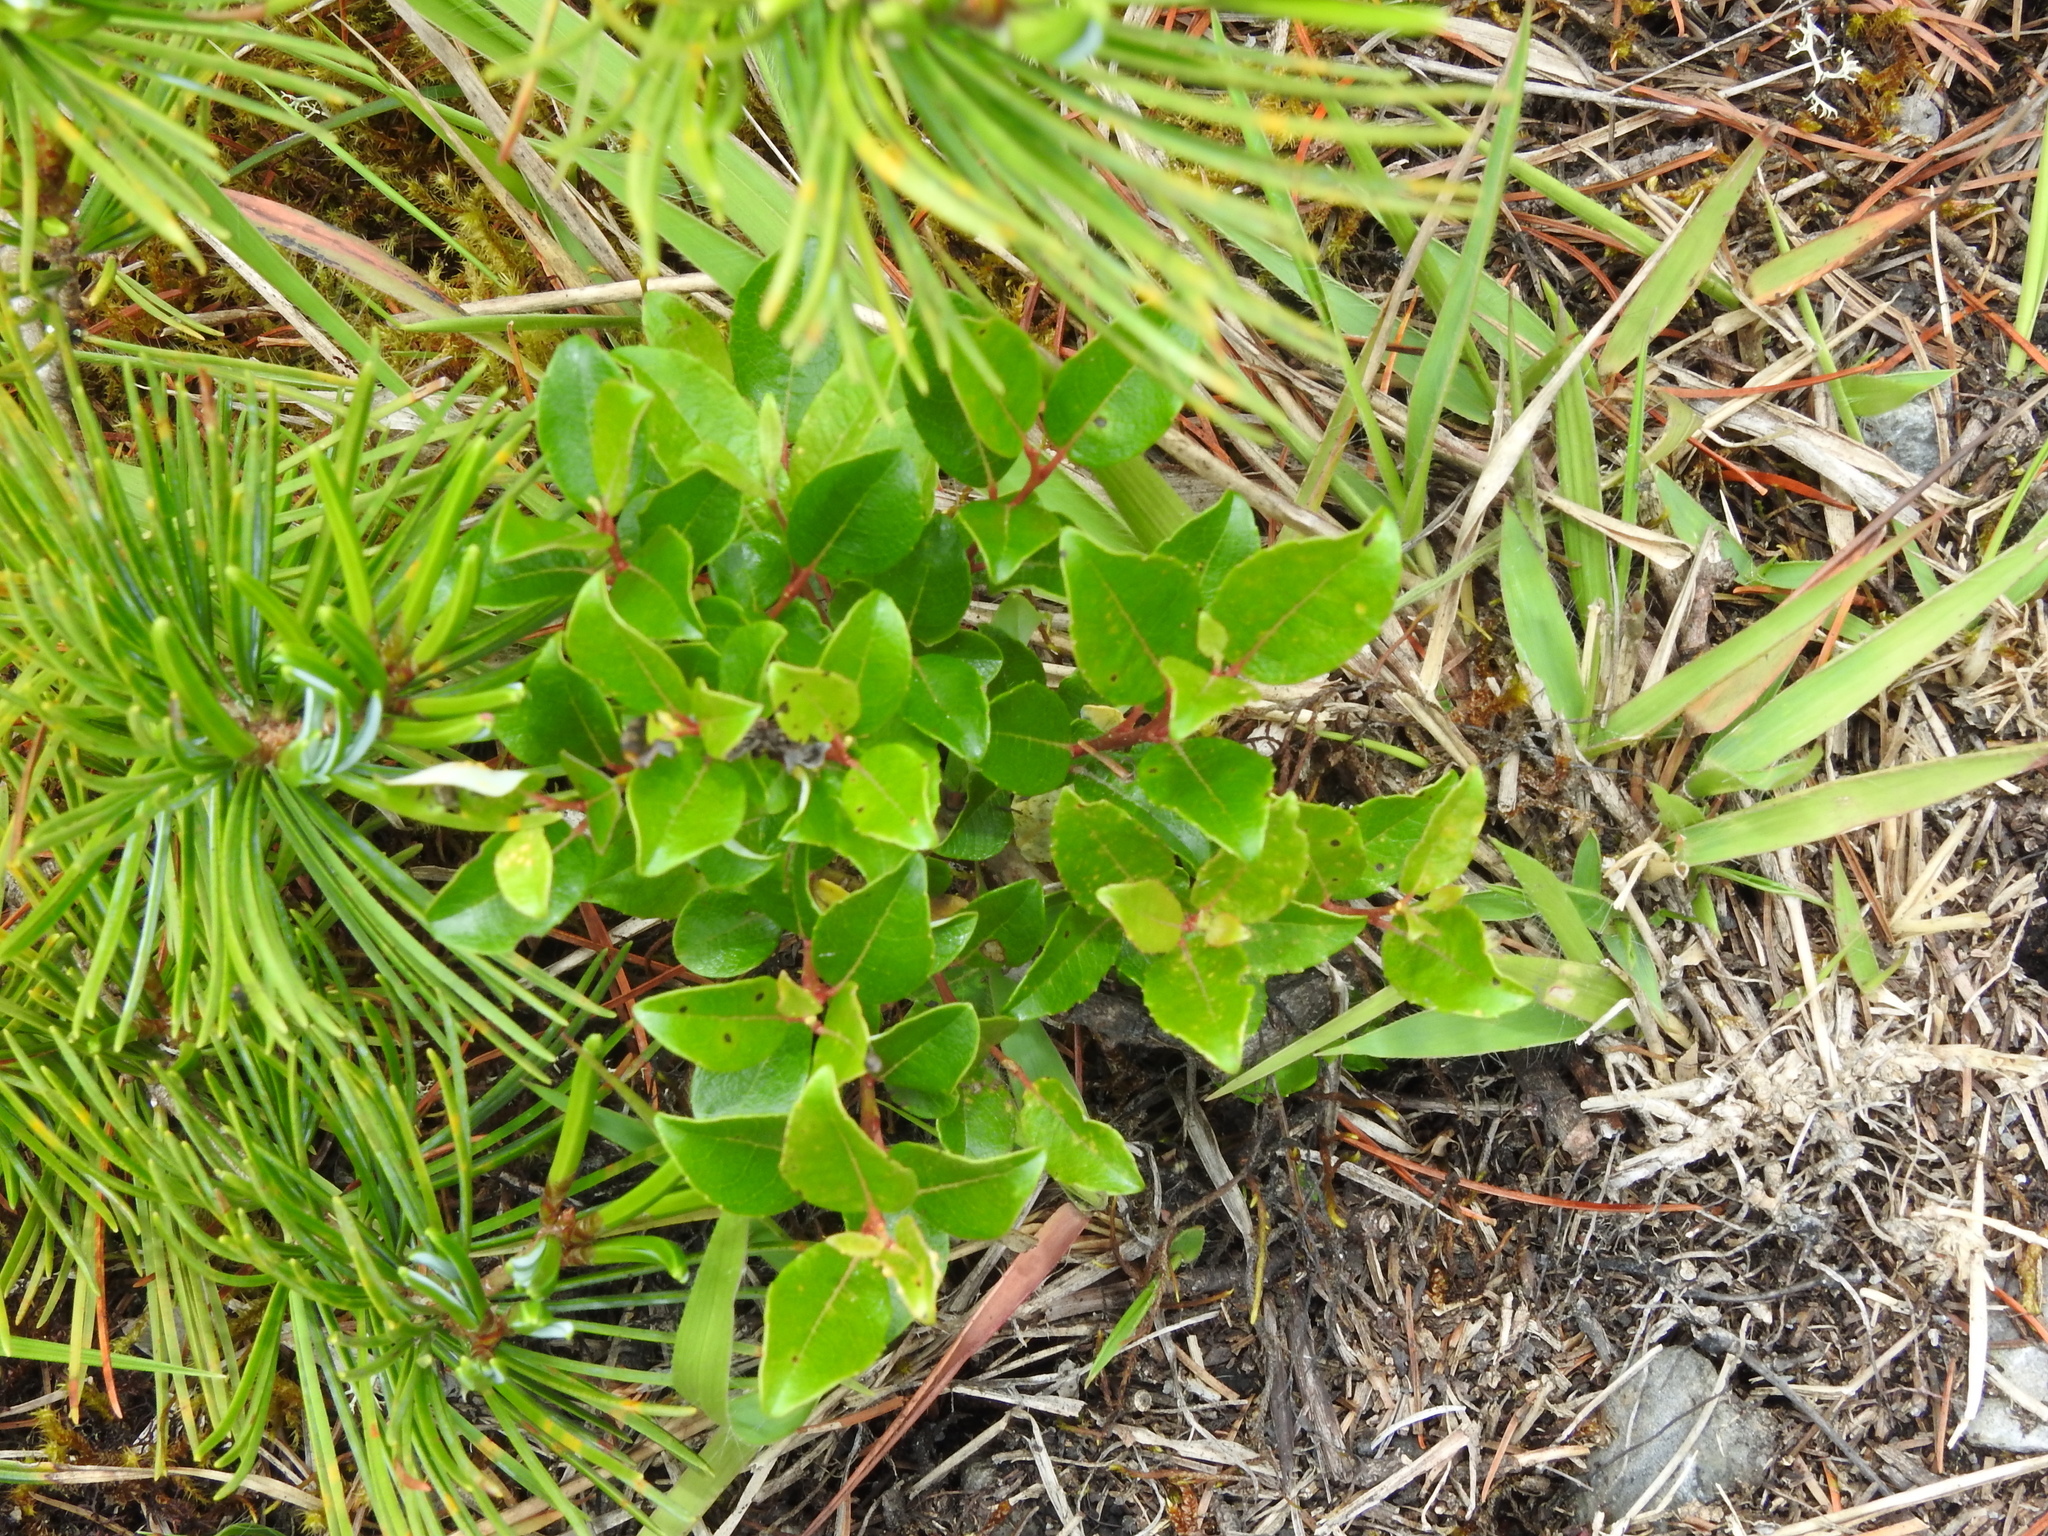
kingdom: Plantae
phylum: Tracheophyta
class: Magnoliopsida
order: Malpighiales
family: Salicaceae
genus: Salix
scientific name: Salix taiwanalpina
